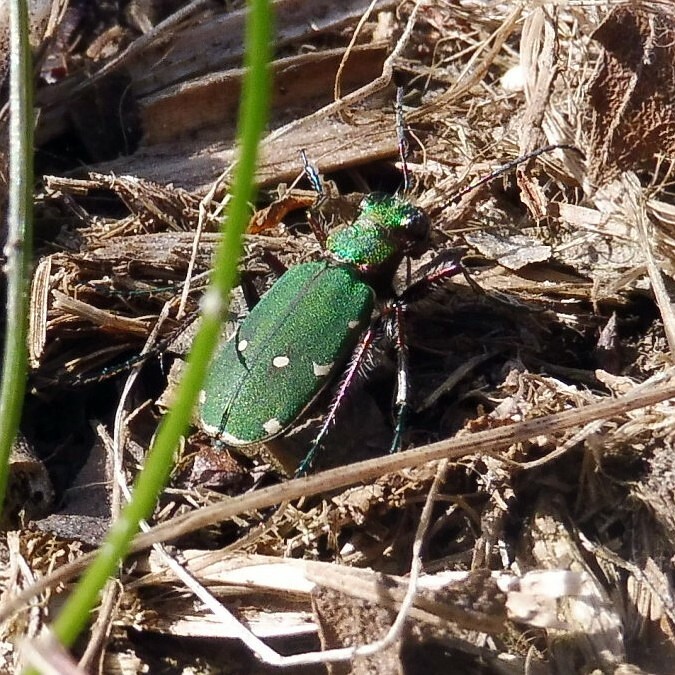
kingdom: Animalia
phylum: Arthropoda
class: Insecta
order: Coleoptera
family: Carabidae
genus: Cicindela
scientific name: Cicindela campestris
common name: Common tiger beetle
